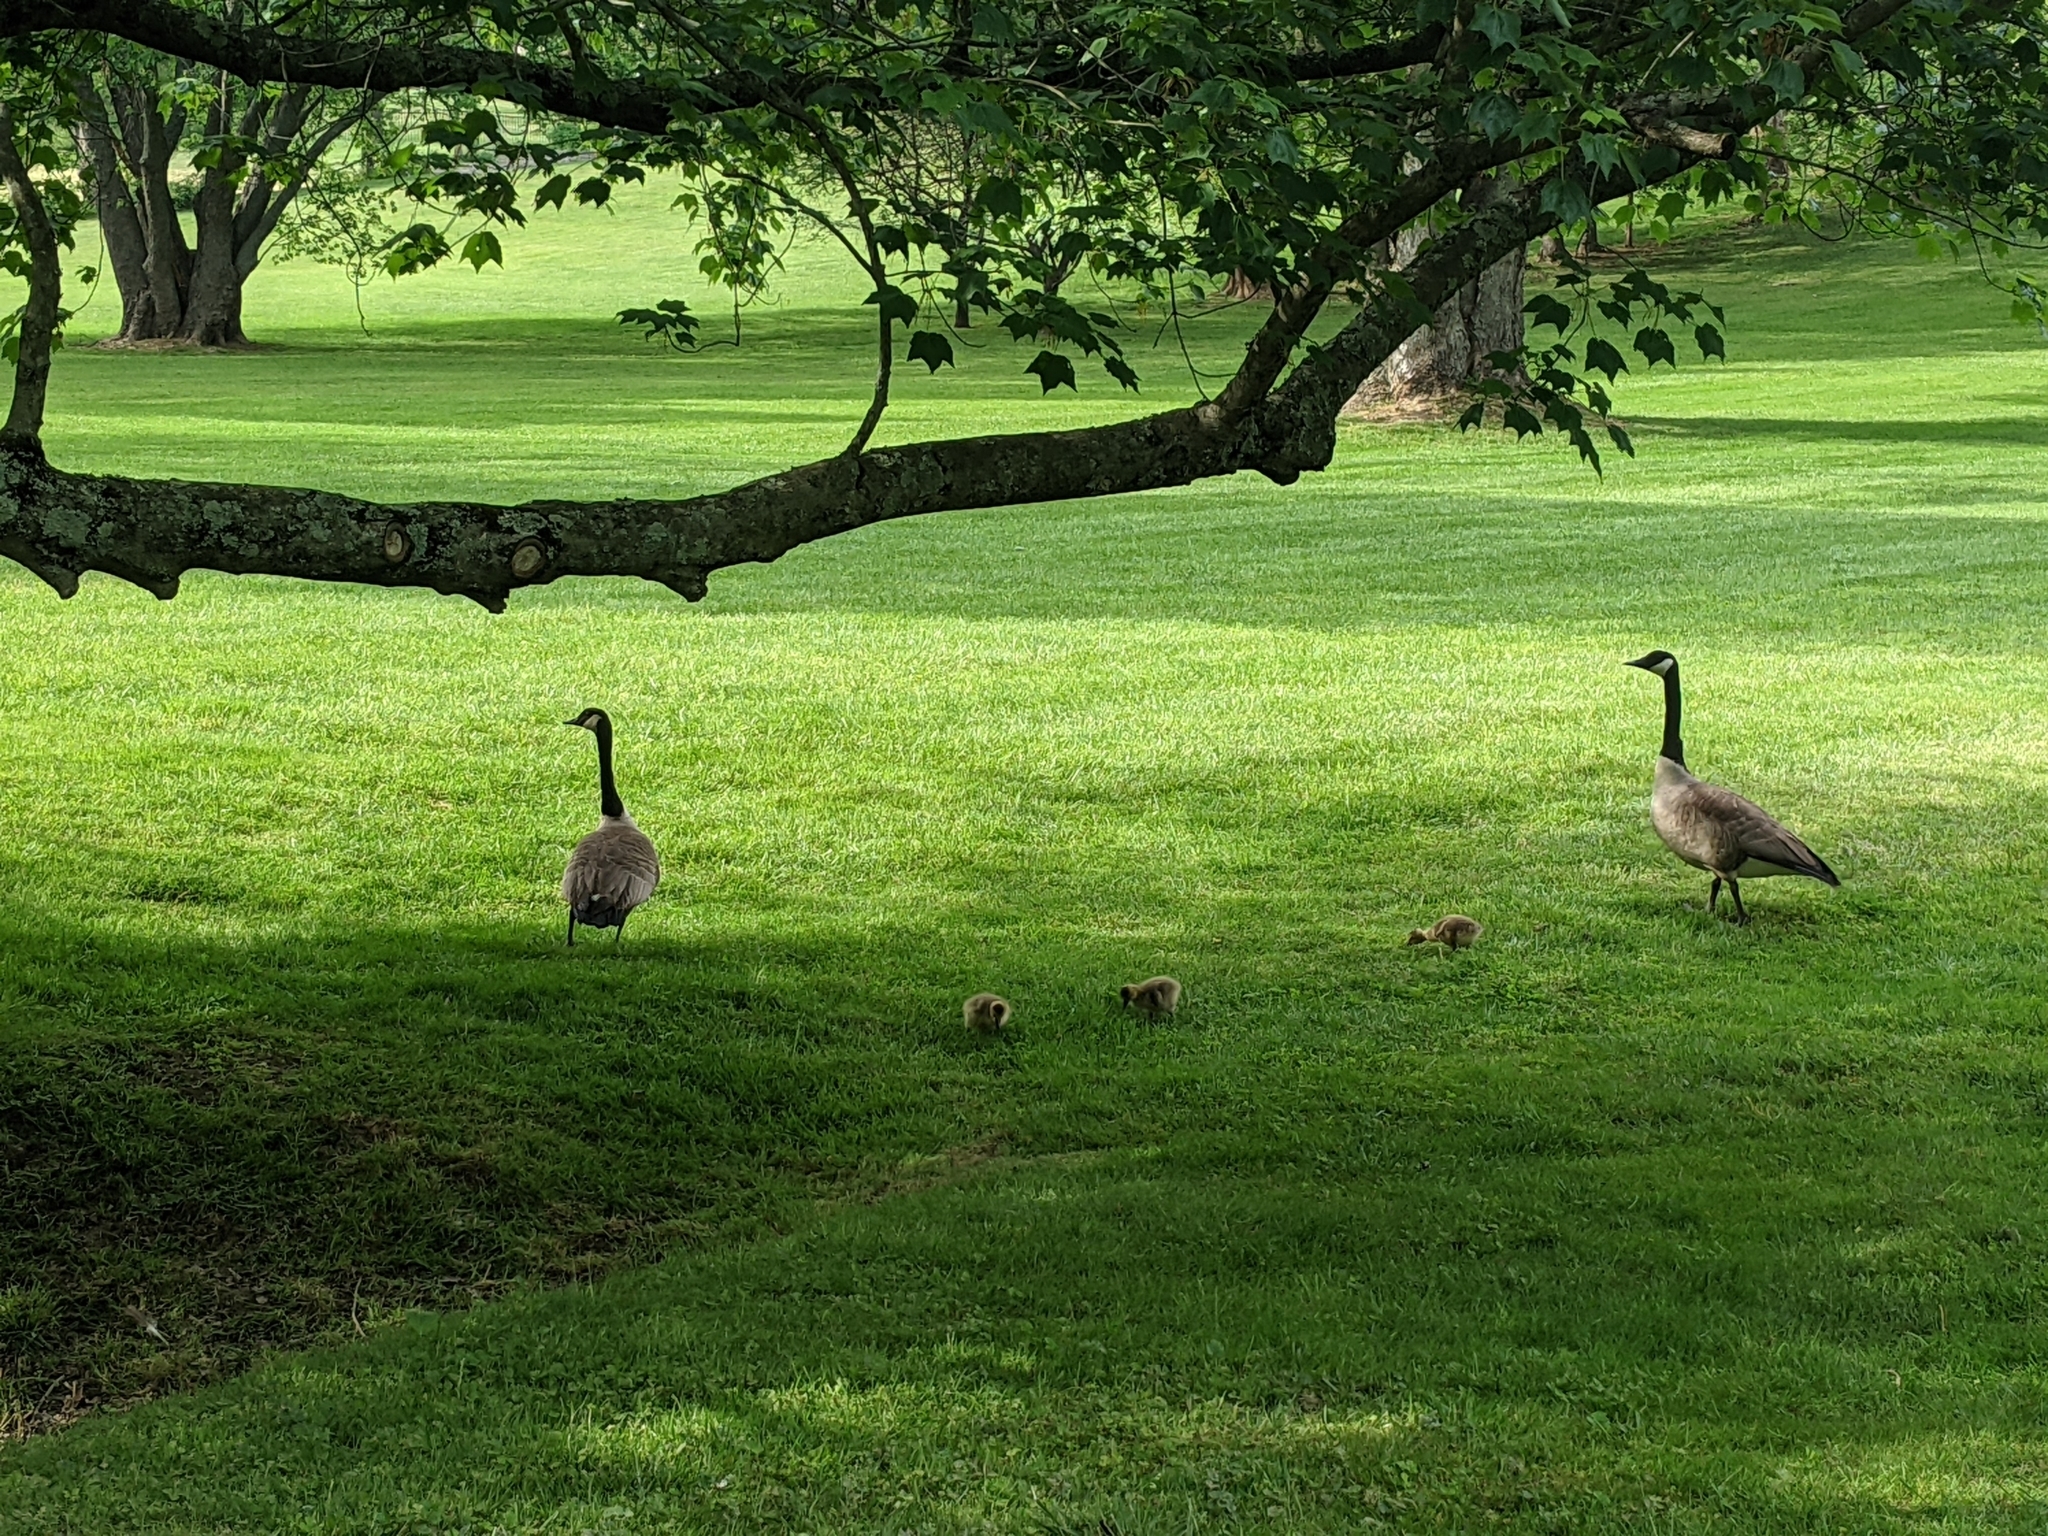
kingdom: Animalia
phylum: Chordata
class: Aves
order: Anseriformes
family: Anatidae
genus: Branta
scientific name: Branta canadensis
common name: Canada goose
